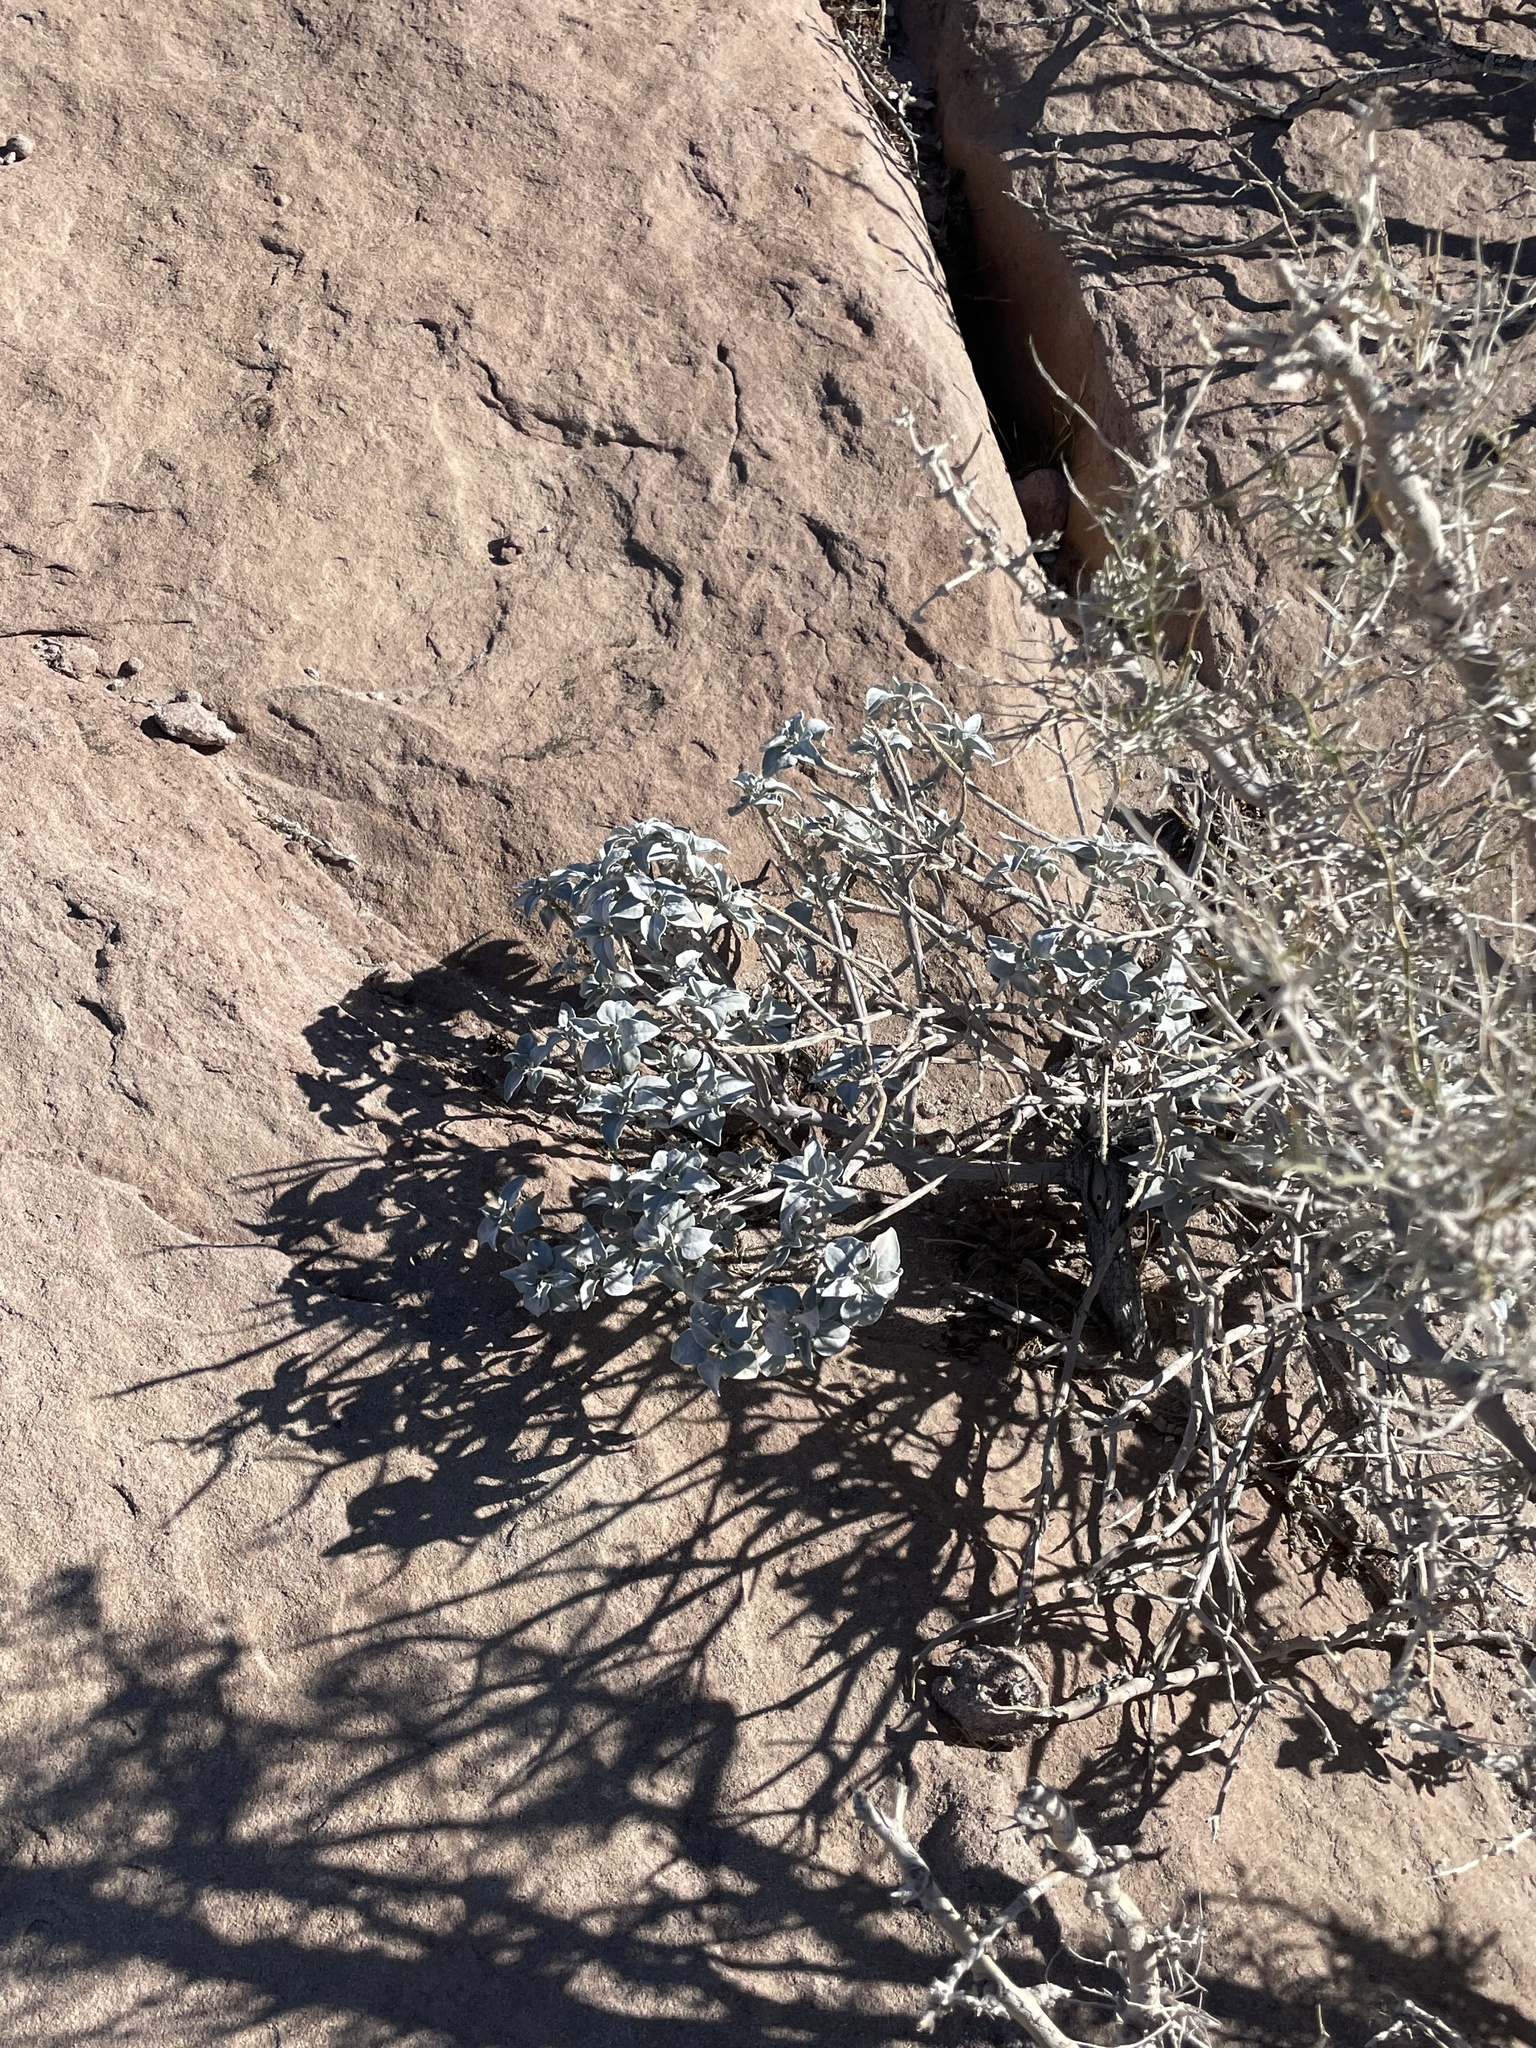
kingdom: Plantae
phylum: Tracheophyta
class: Magnoliopsida
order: Asterales
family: Asteraceae
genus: Encelia
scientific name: Encelia farinosa
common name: Brittlebush
